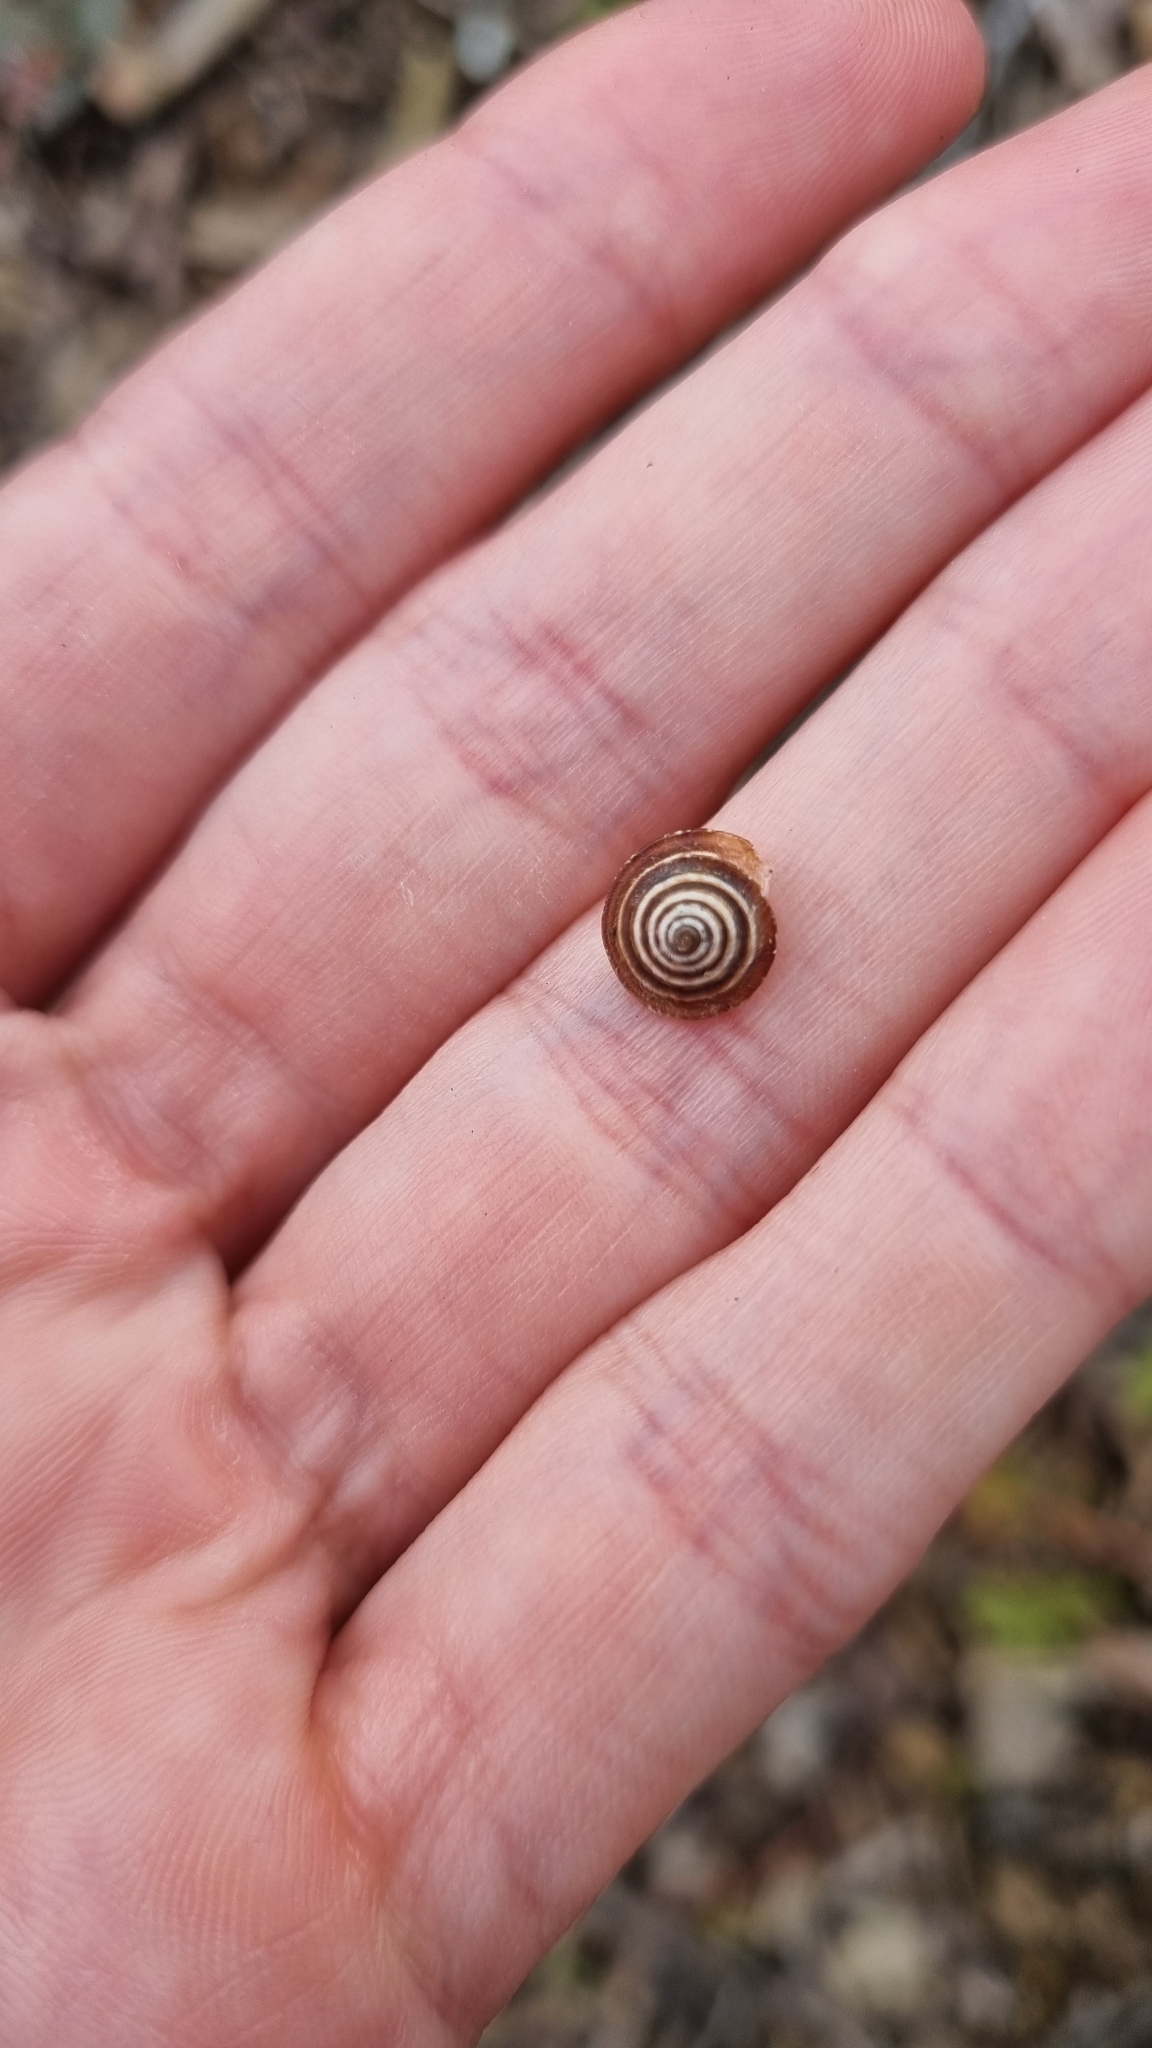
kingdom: Animalia
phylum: Mollusca
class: Gastropoda
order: Stylommatophora
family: Geomitridae
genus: Trochoidea
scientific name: Trochoidea elegans
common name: Elegant helicellid
